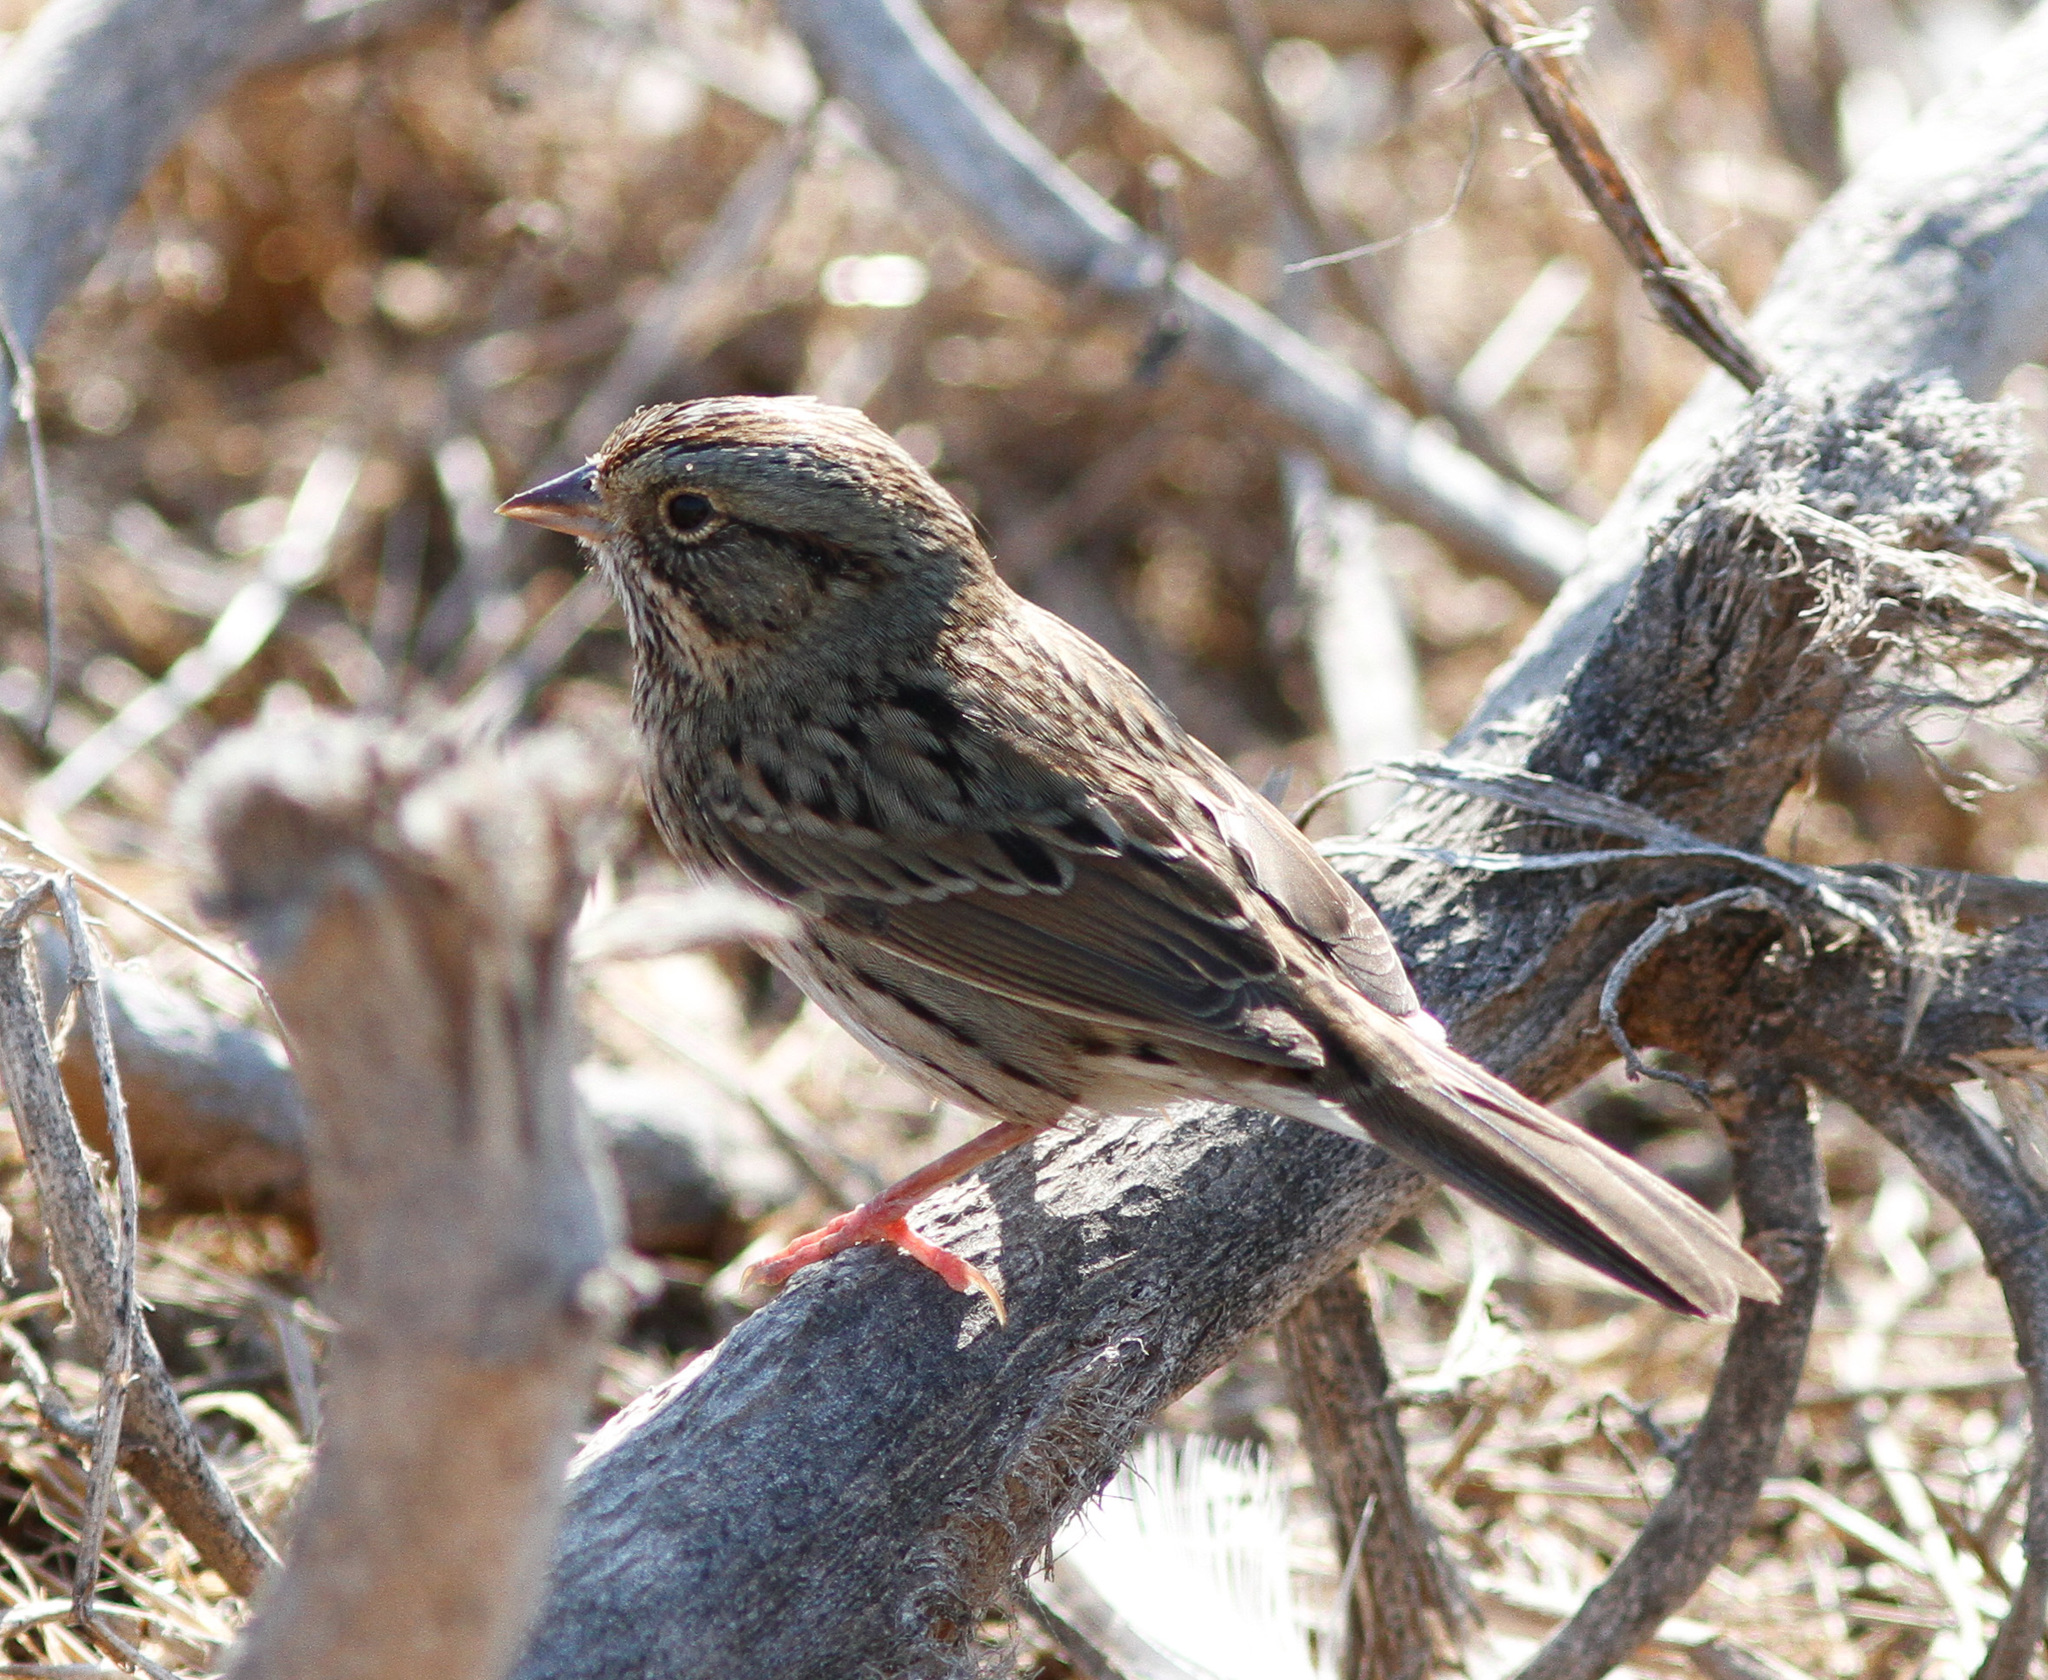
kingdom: Animalia
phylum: Chordata
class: Aves
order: Passeriformes
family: Passerellidae
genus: Melospiza
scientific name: Melospiza lincolnii
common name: Lincoln's sparrow
